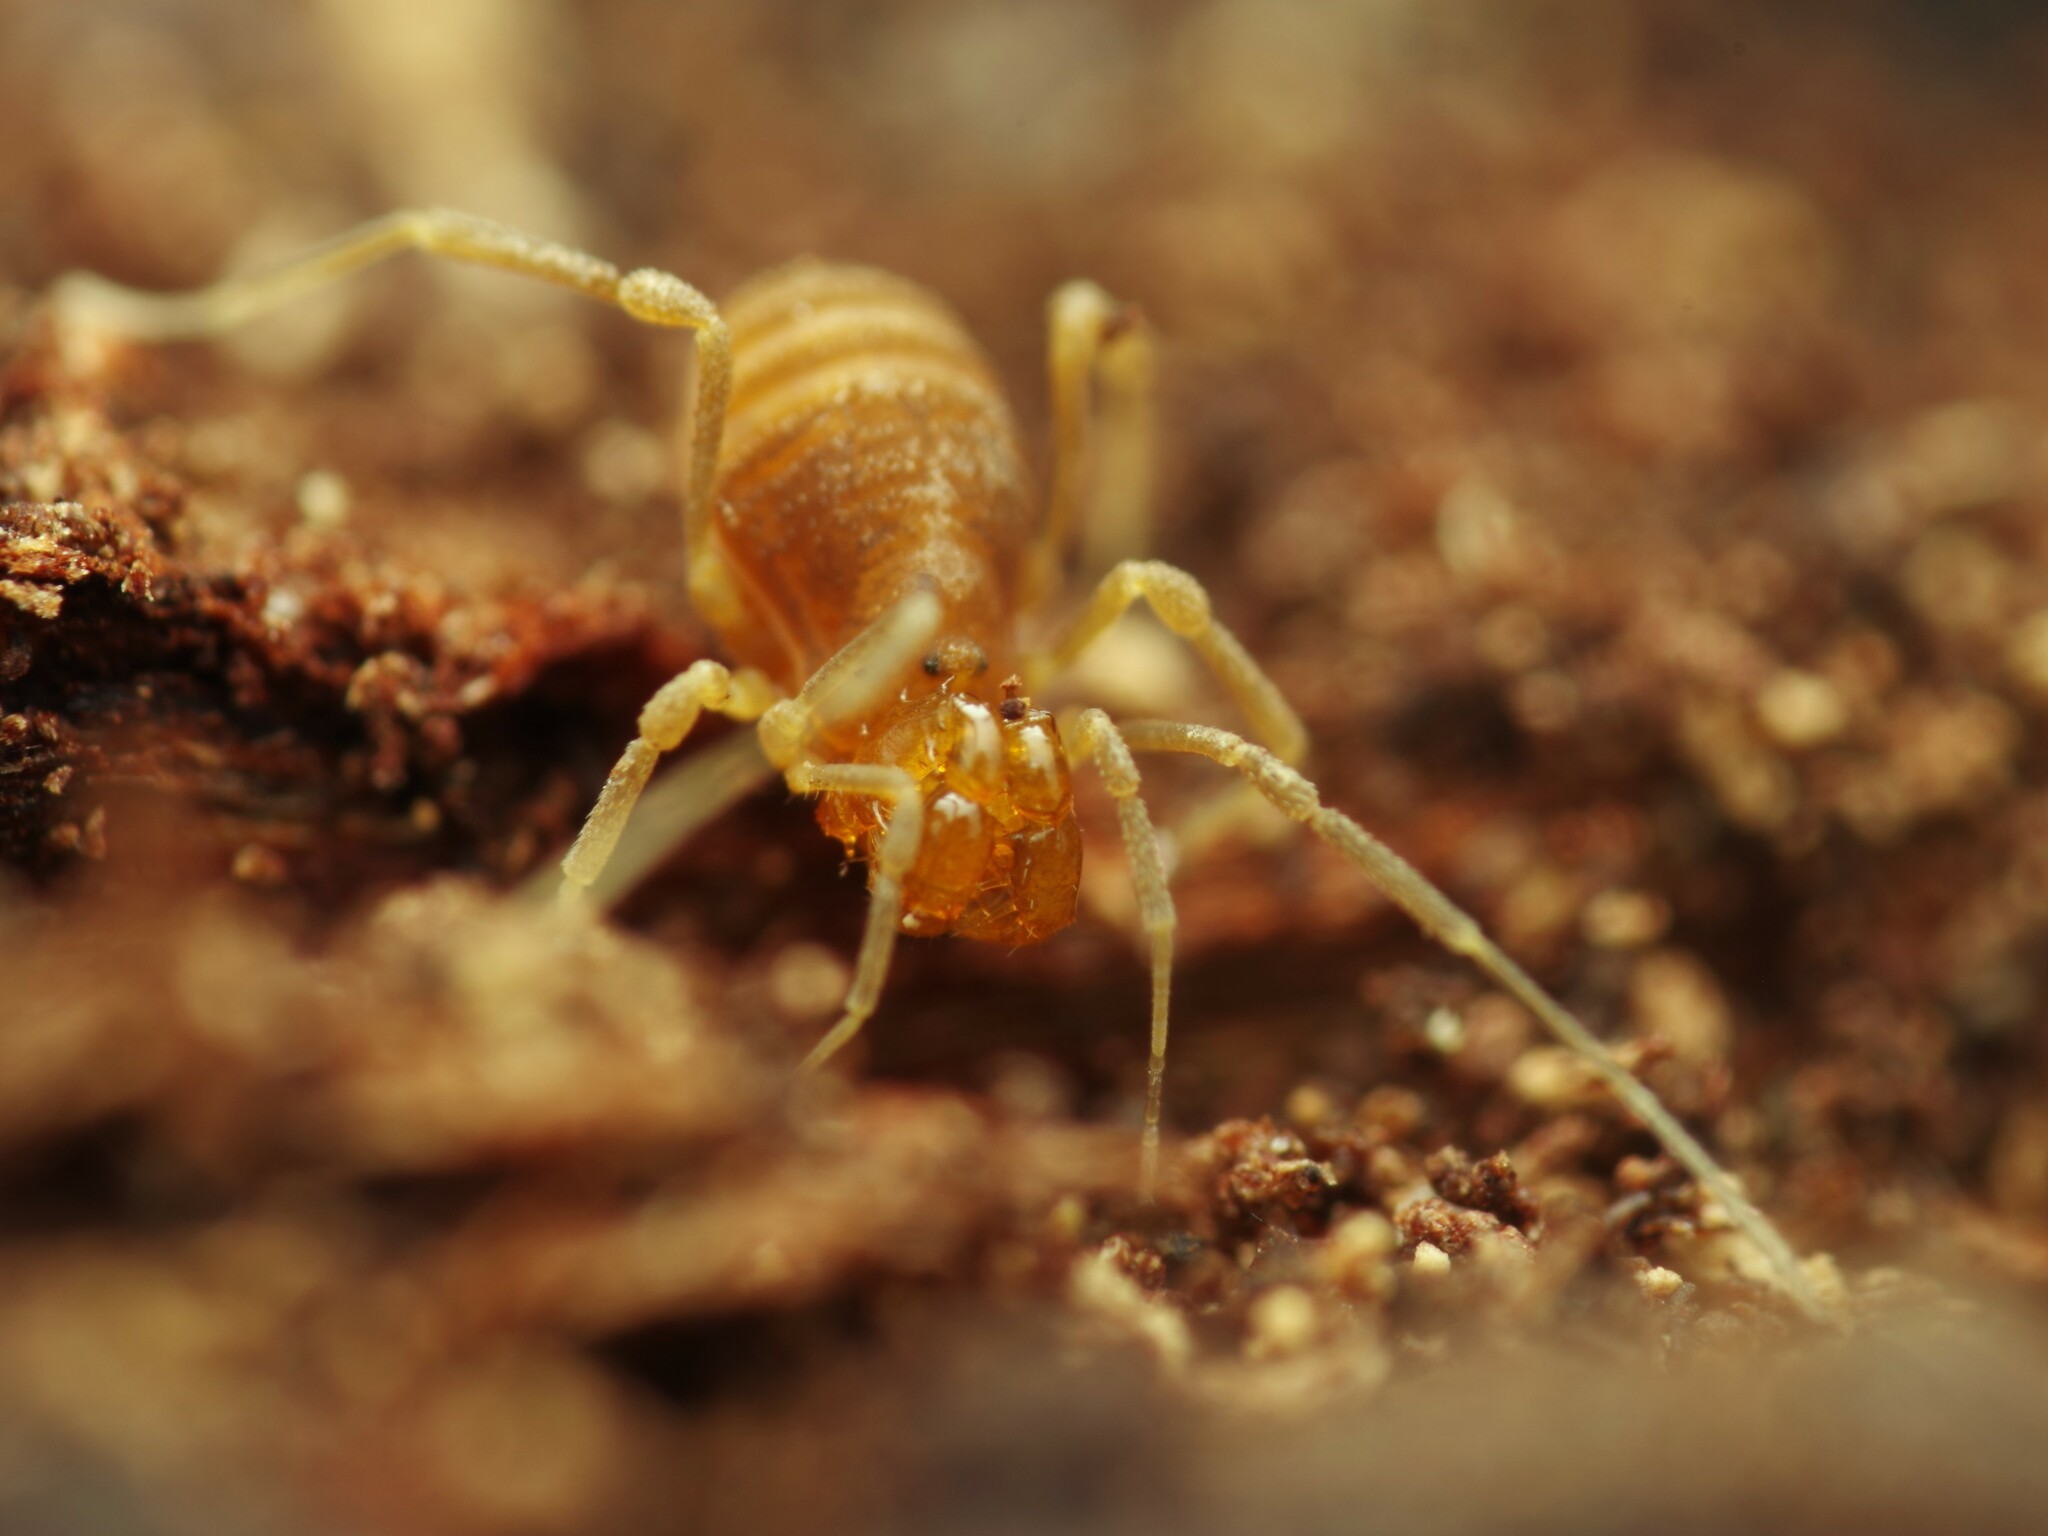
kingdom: Animalia
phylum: Arthropoda
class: Arachnida
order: Opiliones
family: Cladonychiidae
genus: Holoscotolemon
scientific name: Holoscotolemon querilhaci
